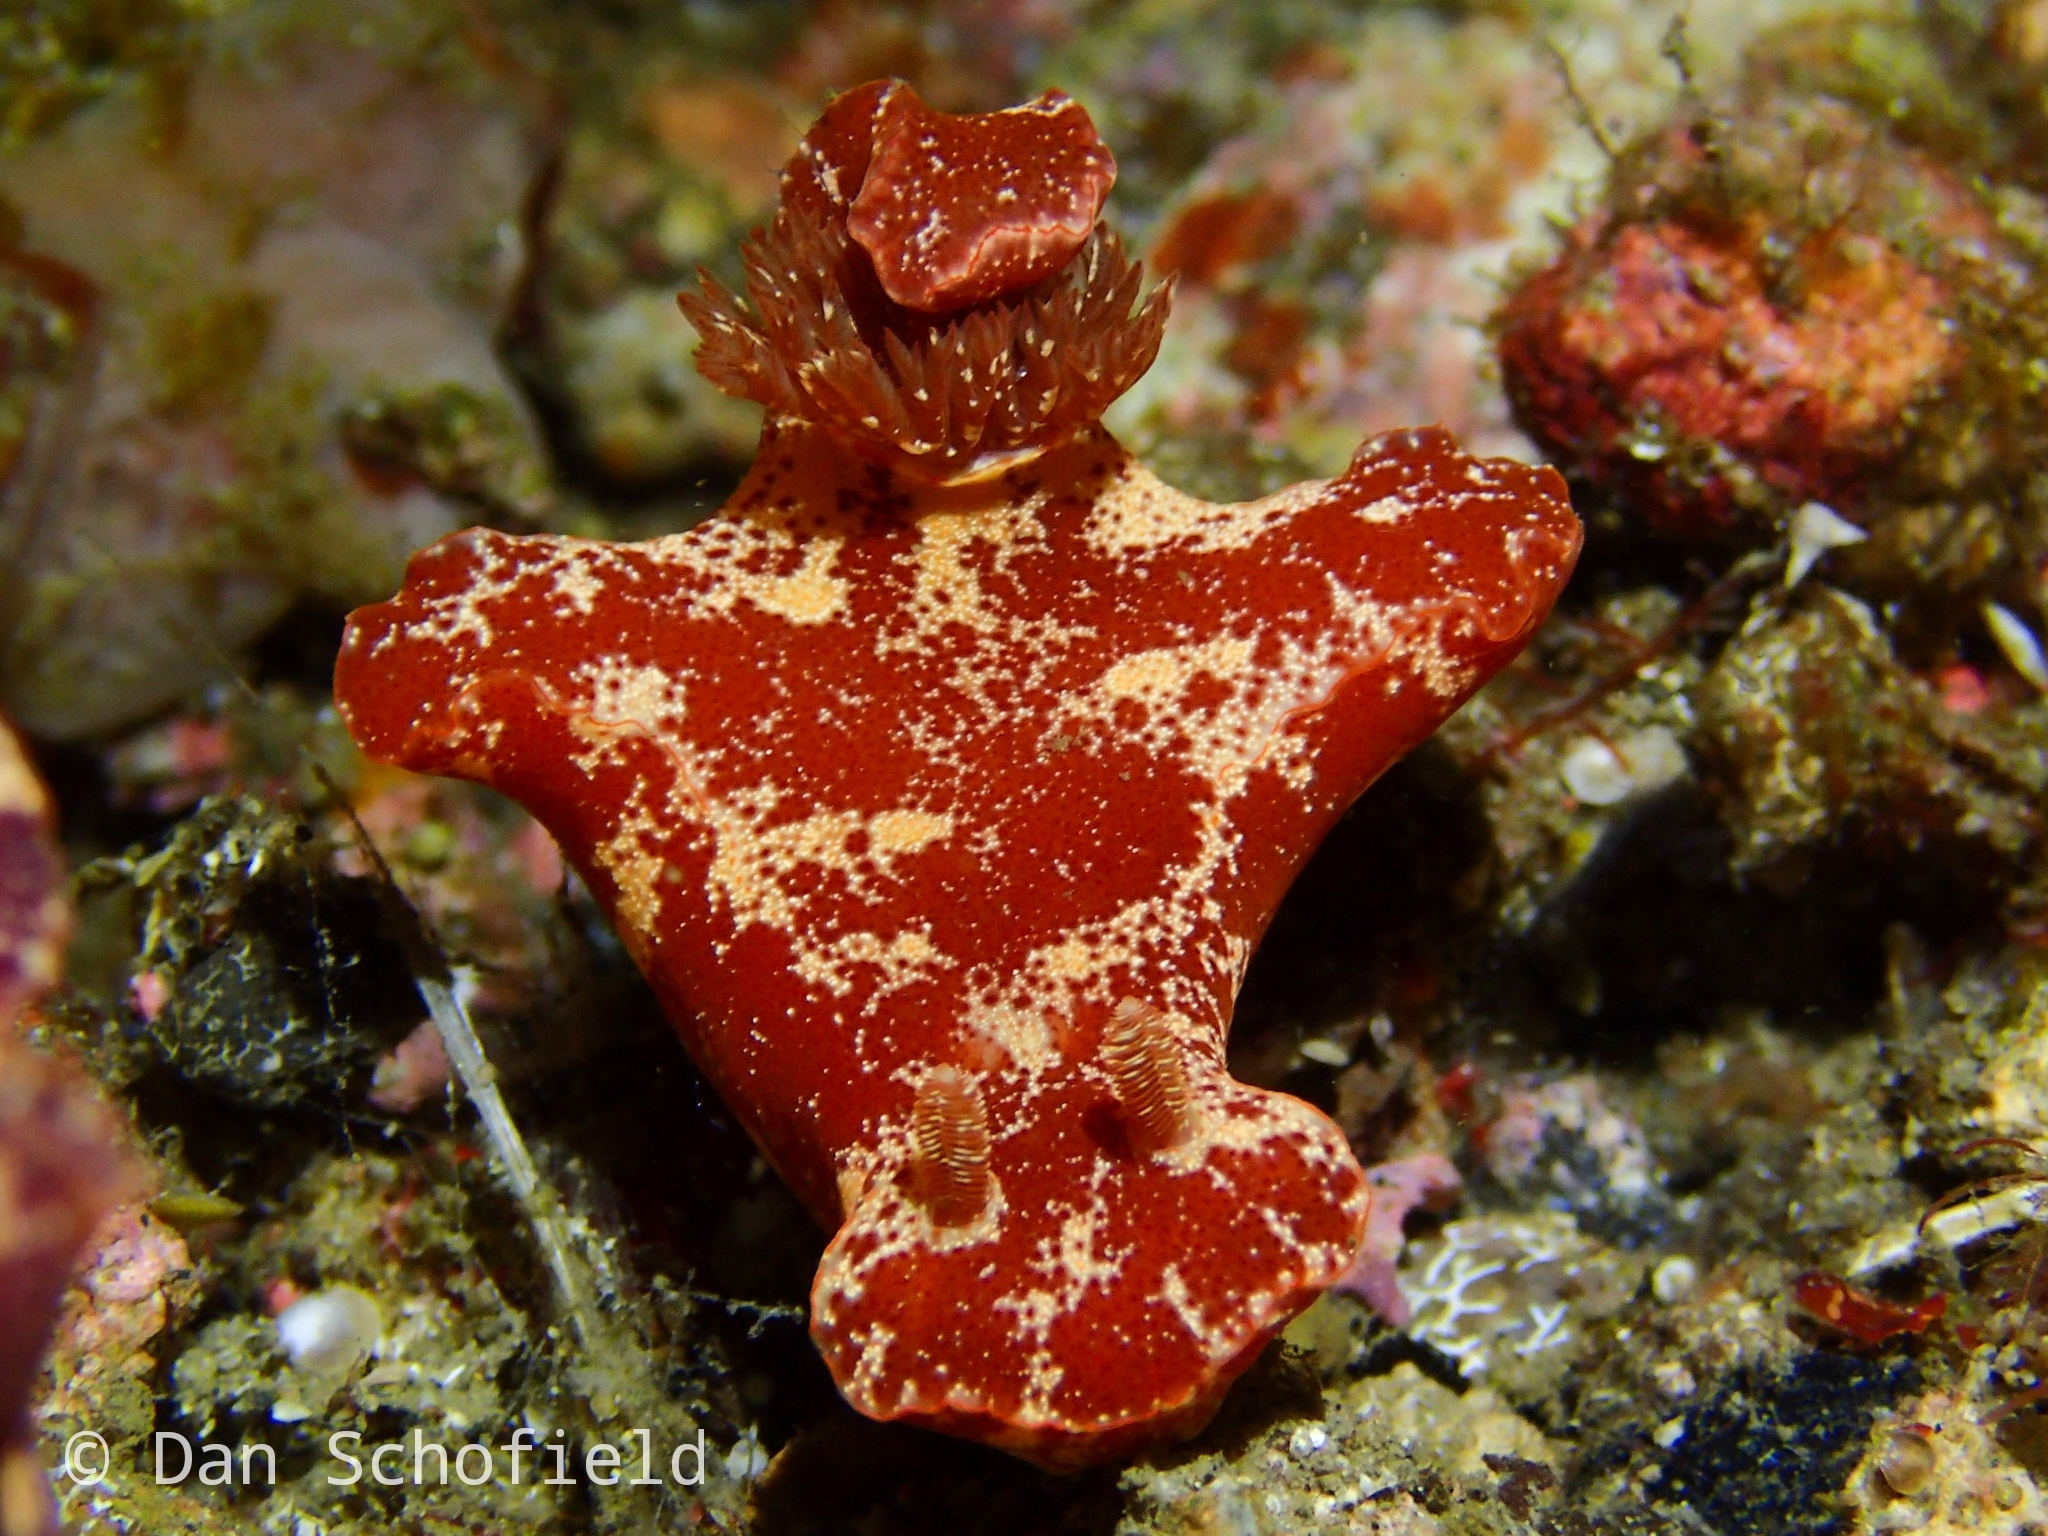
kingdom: Animalia
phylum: Mollusca
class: Gastropoda
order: Nudibranchia
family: Chromodorididae
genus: Ceratosoma
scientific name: Ceratosoma gracillimum
